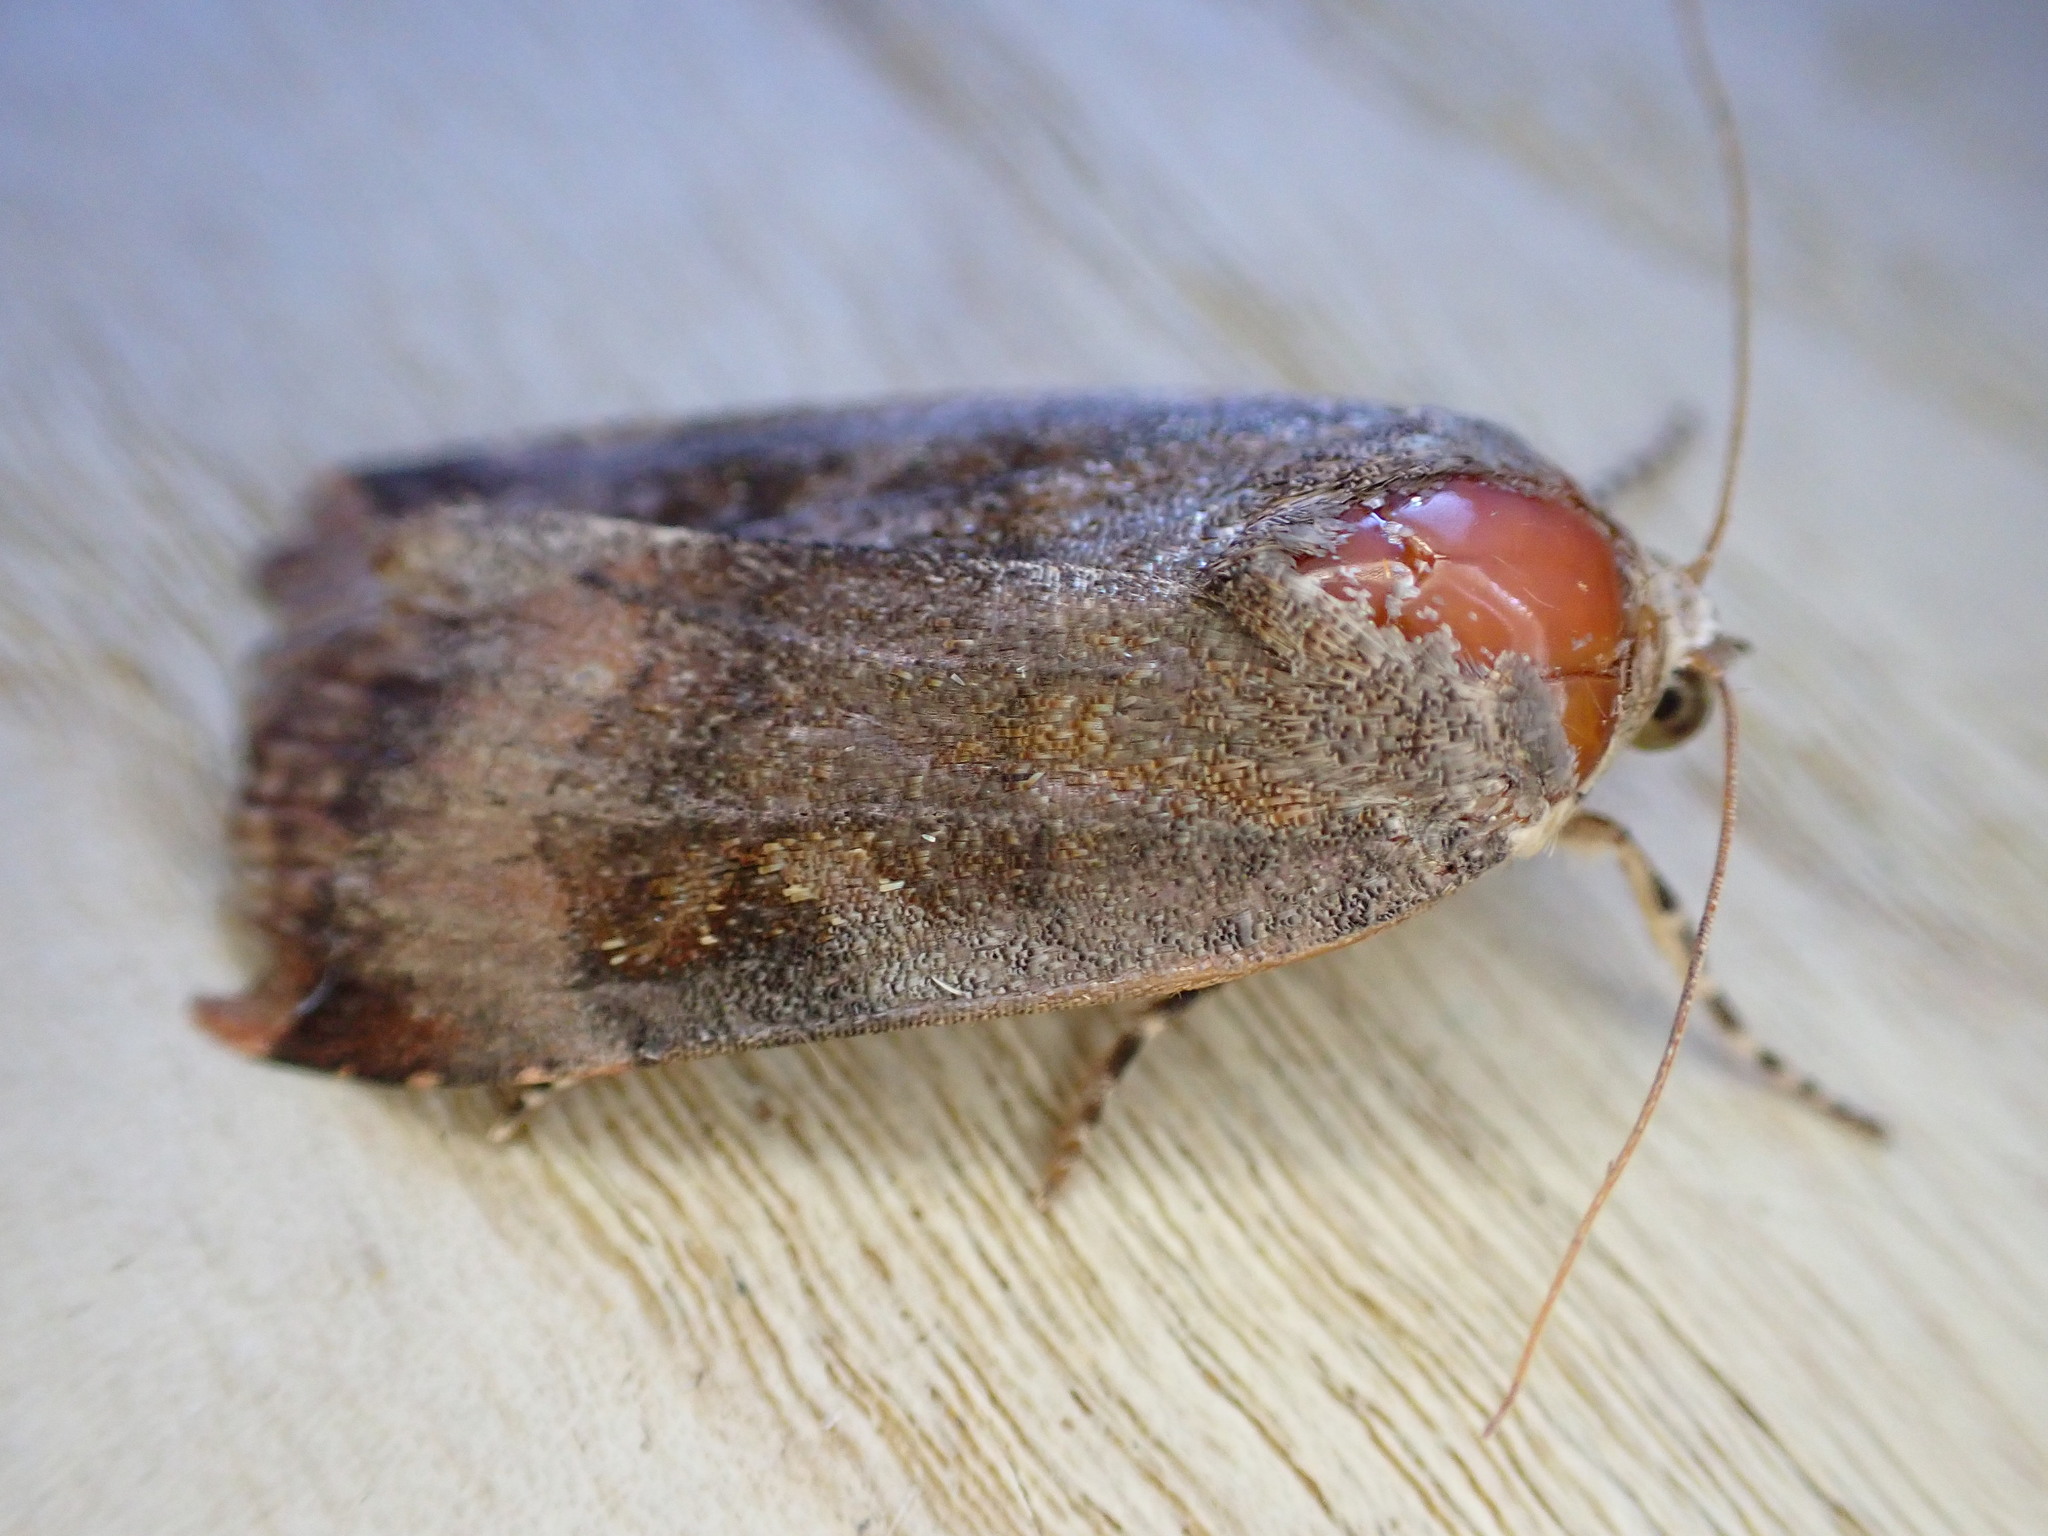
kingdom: Animalia
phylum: Arthropoda
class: Insecta
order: Lepidoptera
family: Noctuidae
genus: Noctua
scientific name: Noctua janthe
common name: Lesser broad-bordered yellow underwing
